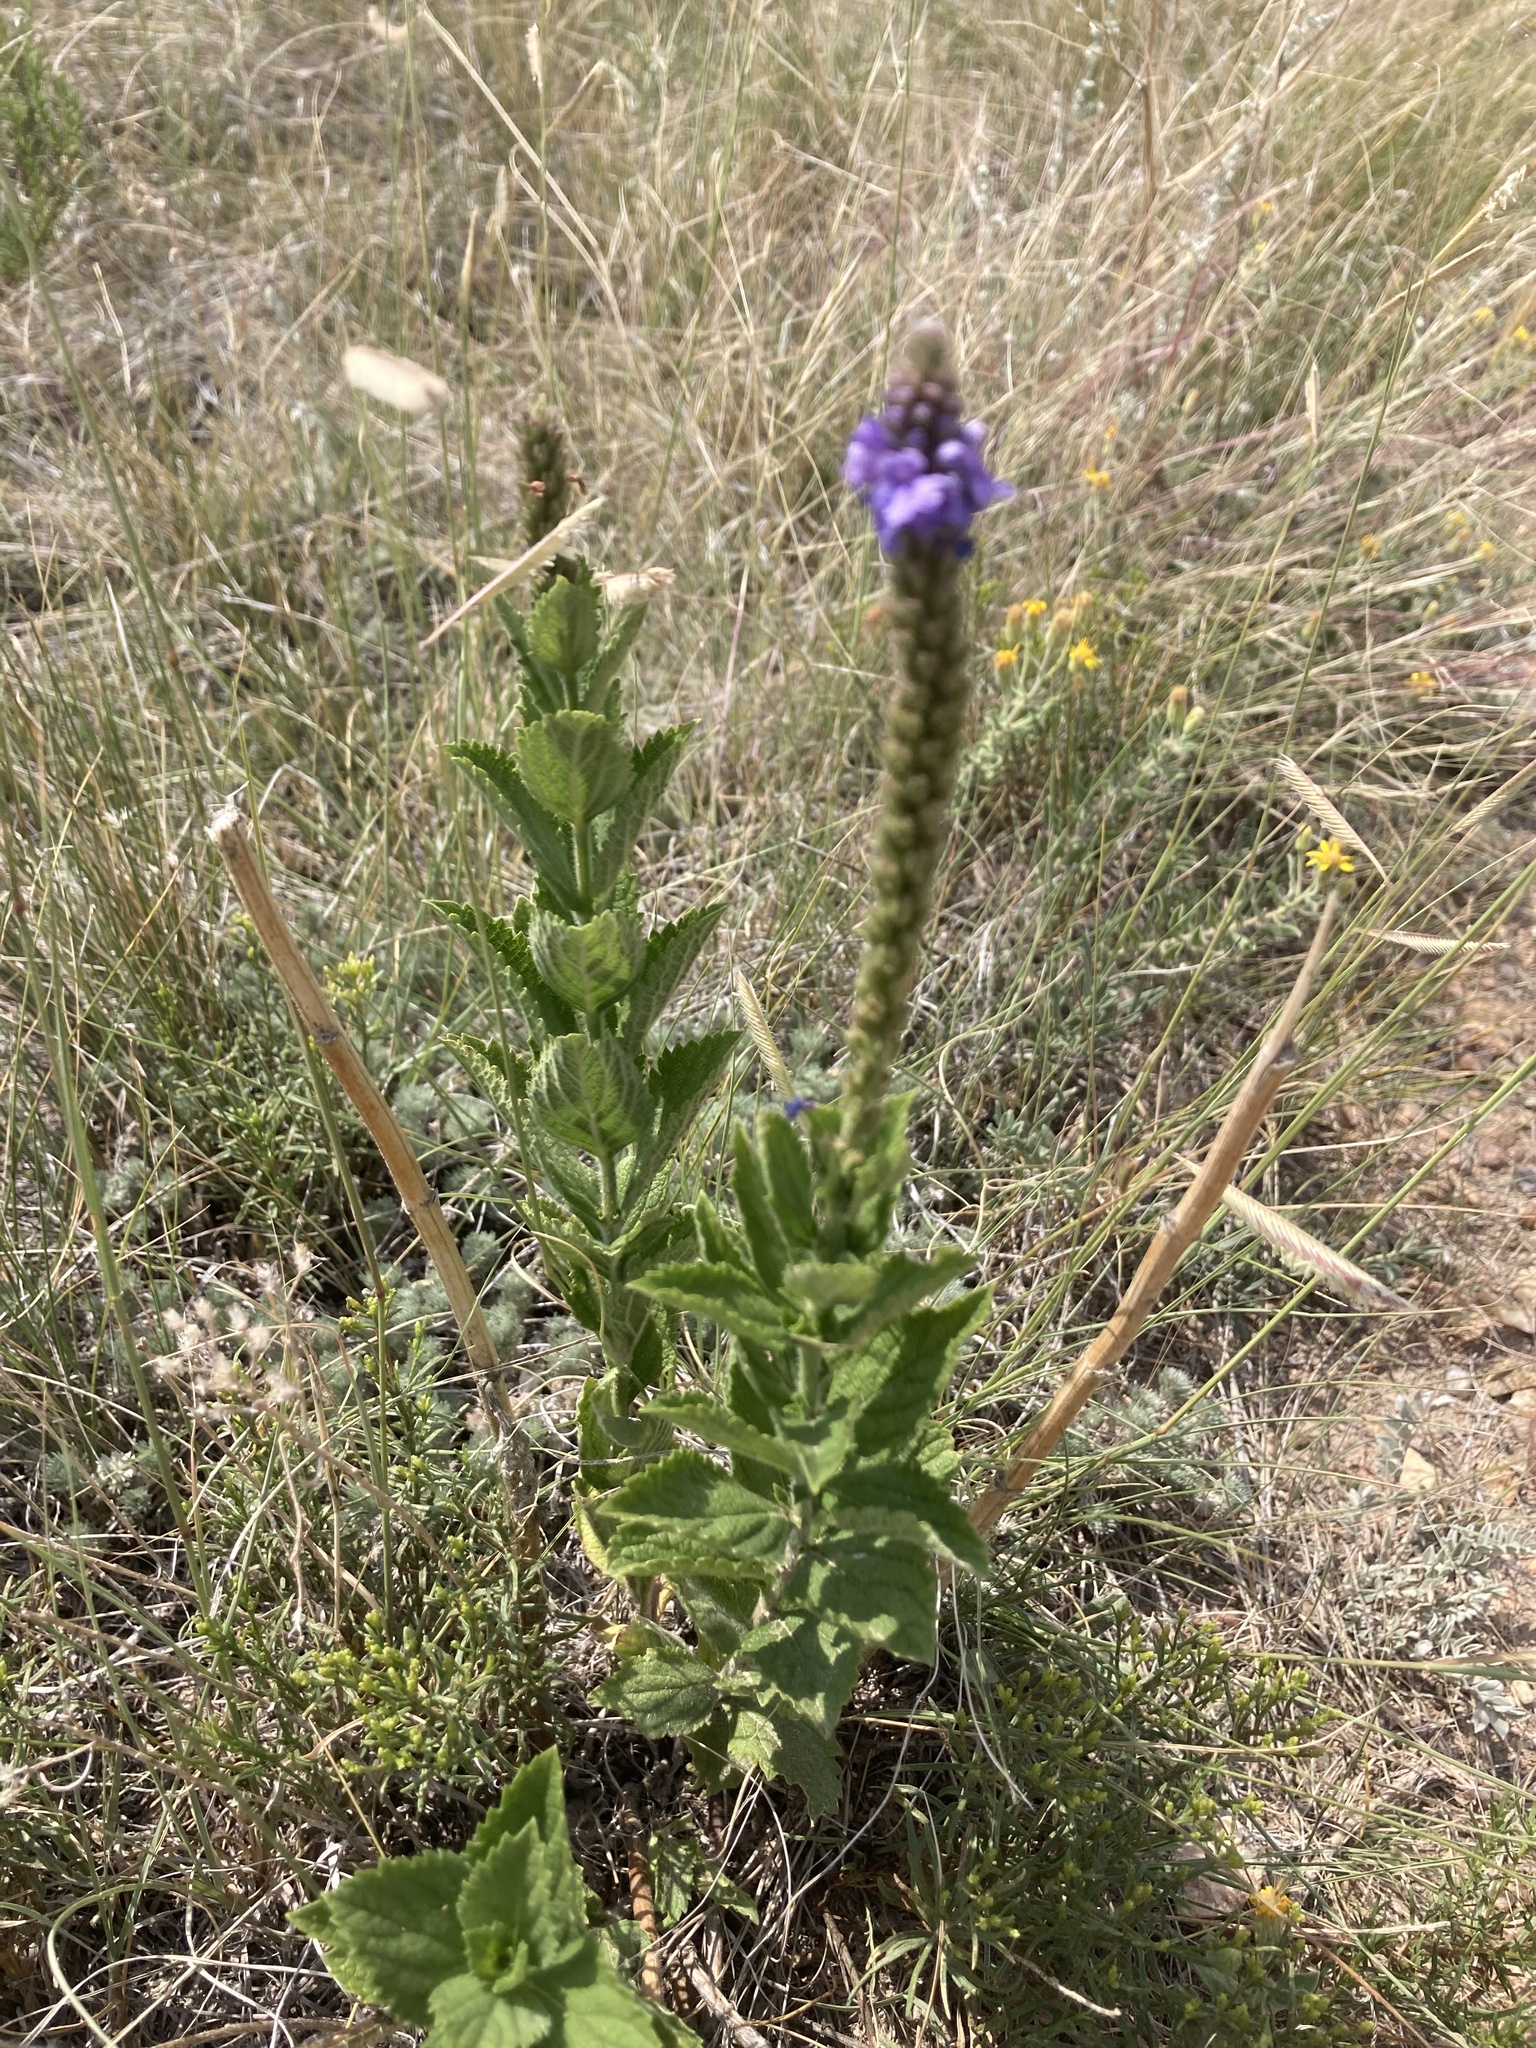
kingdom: Plantae
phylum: Tracheophyta
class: Magnoliopsida
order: Lamiales
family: Verbenaceae
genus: Verbena
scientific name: Verbena stricta
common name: Hoary vervain
